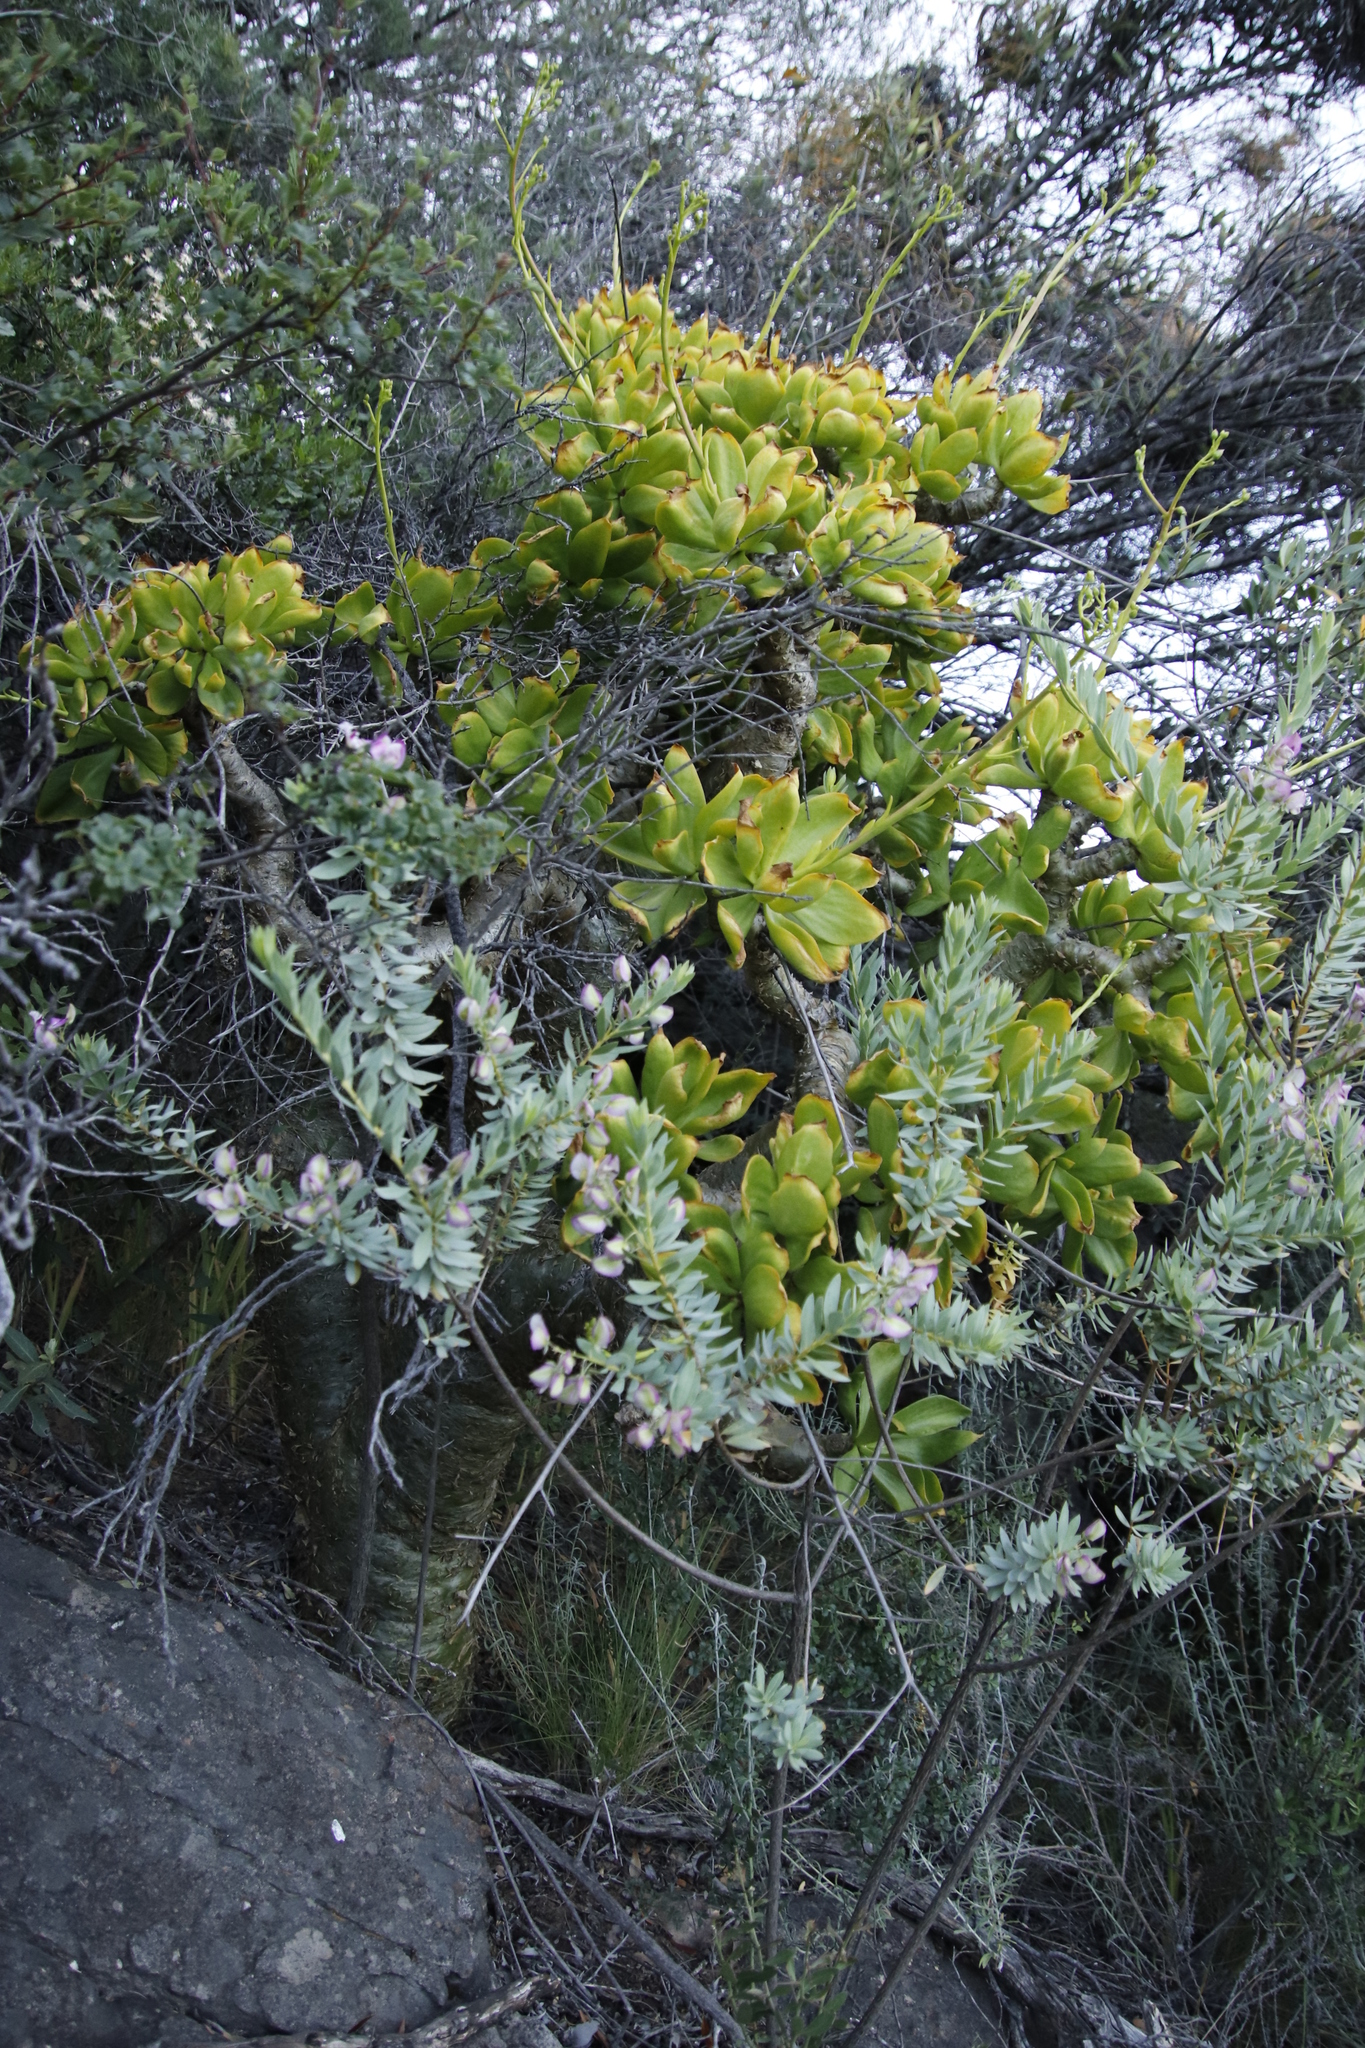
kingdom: Plantae
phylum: Tracheophyta
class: Magnoliopsida
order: Saxifragales
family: Crassulaceae
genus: Tylecodon
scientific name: Tylecodon paniculatus
